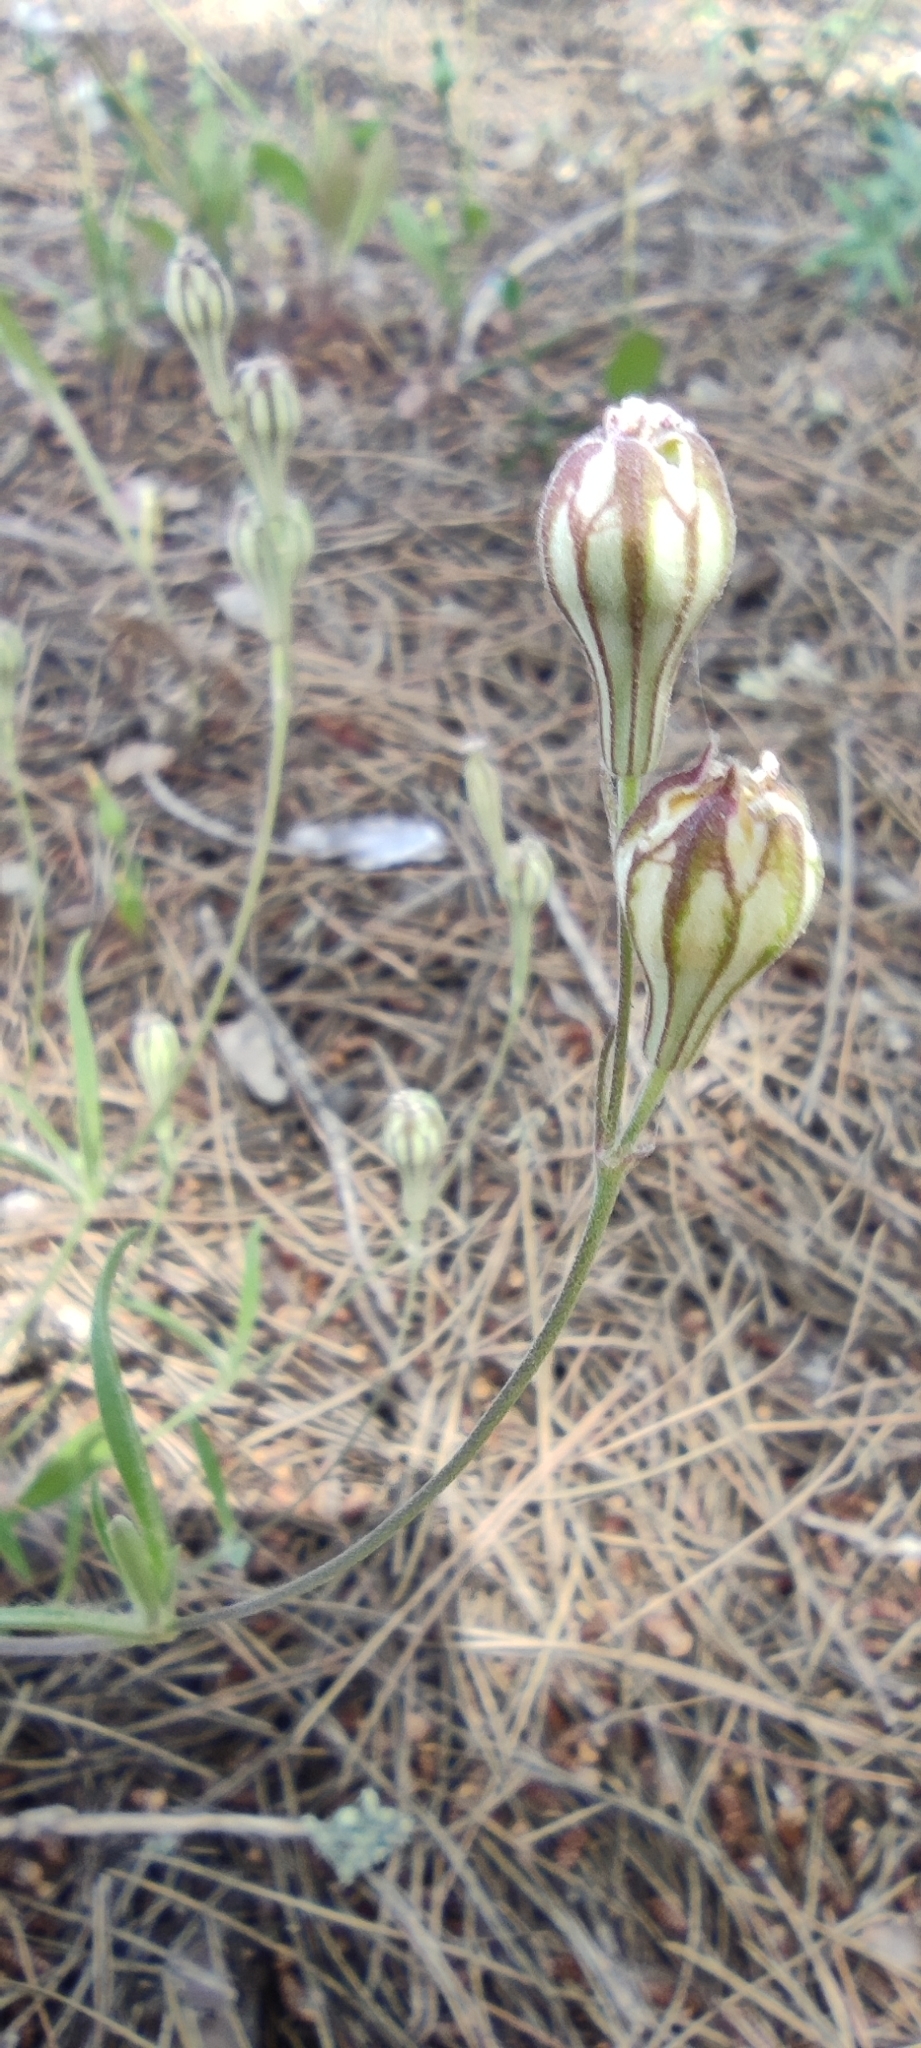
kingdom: Plantae
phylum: Tracheophyta
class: Magnoliopsida
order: Caryophyllales
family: Caryophyllaceae
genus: Silene
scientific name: Silene secundiflora
